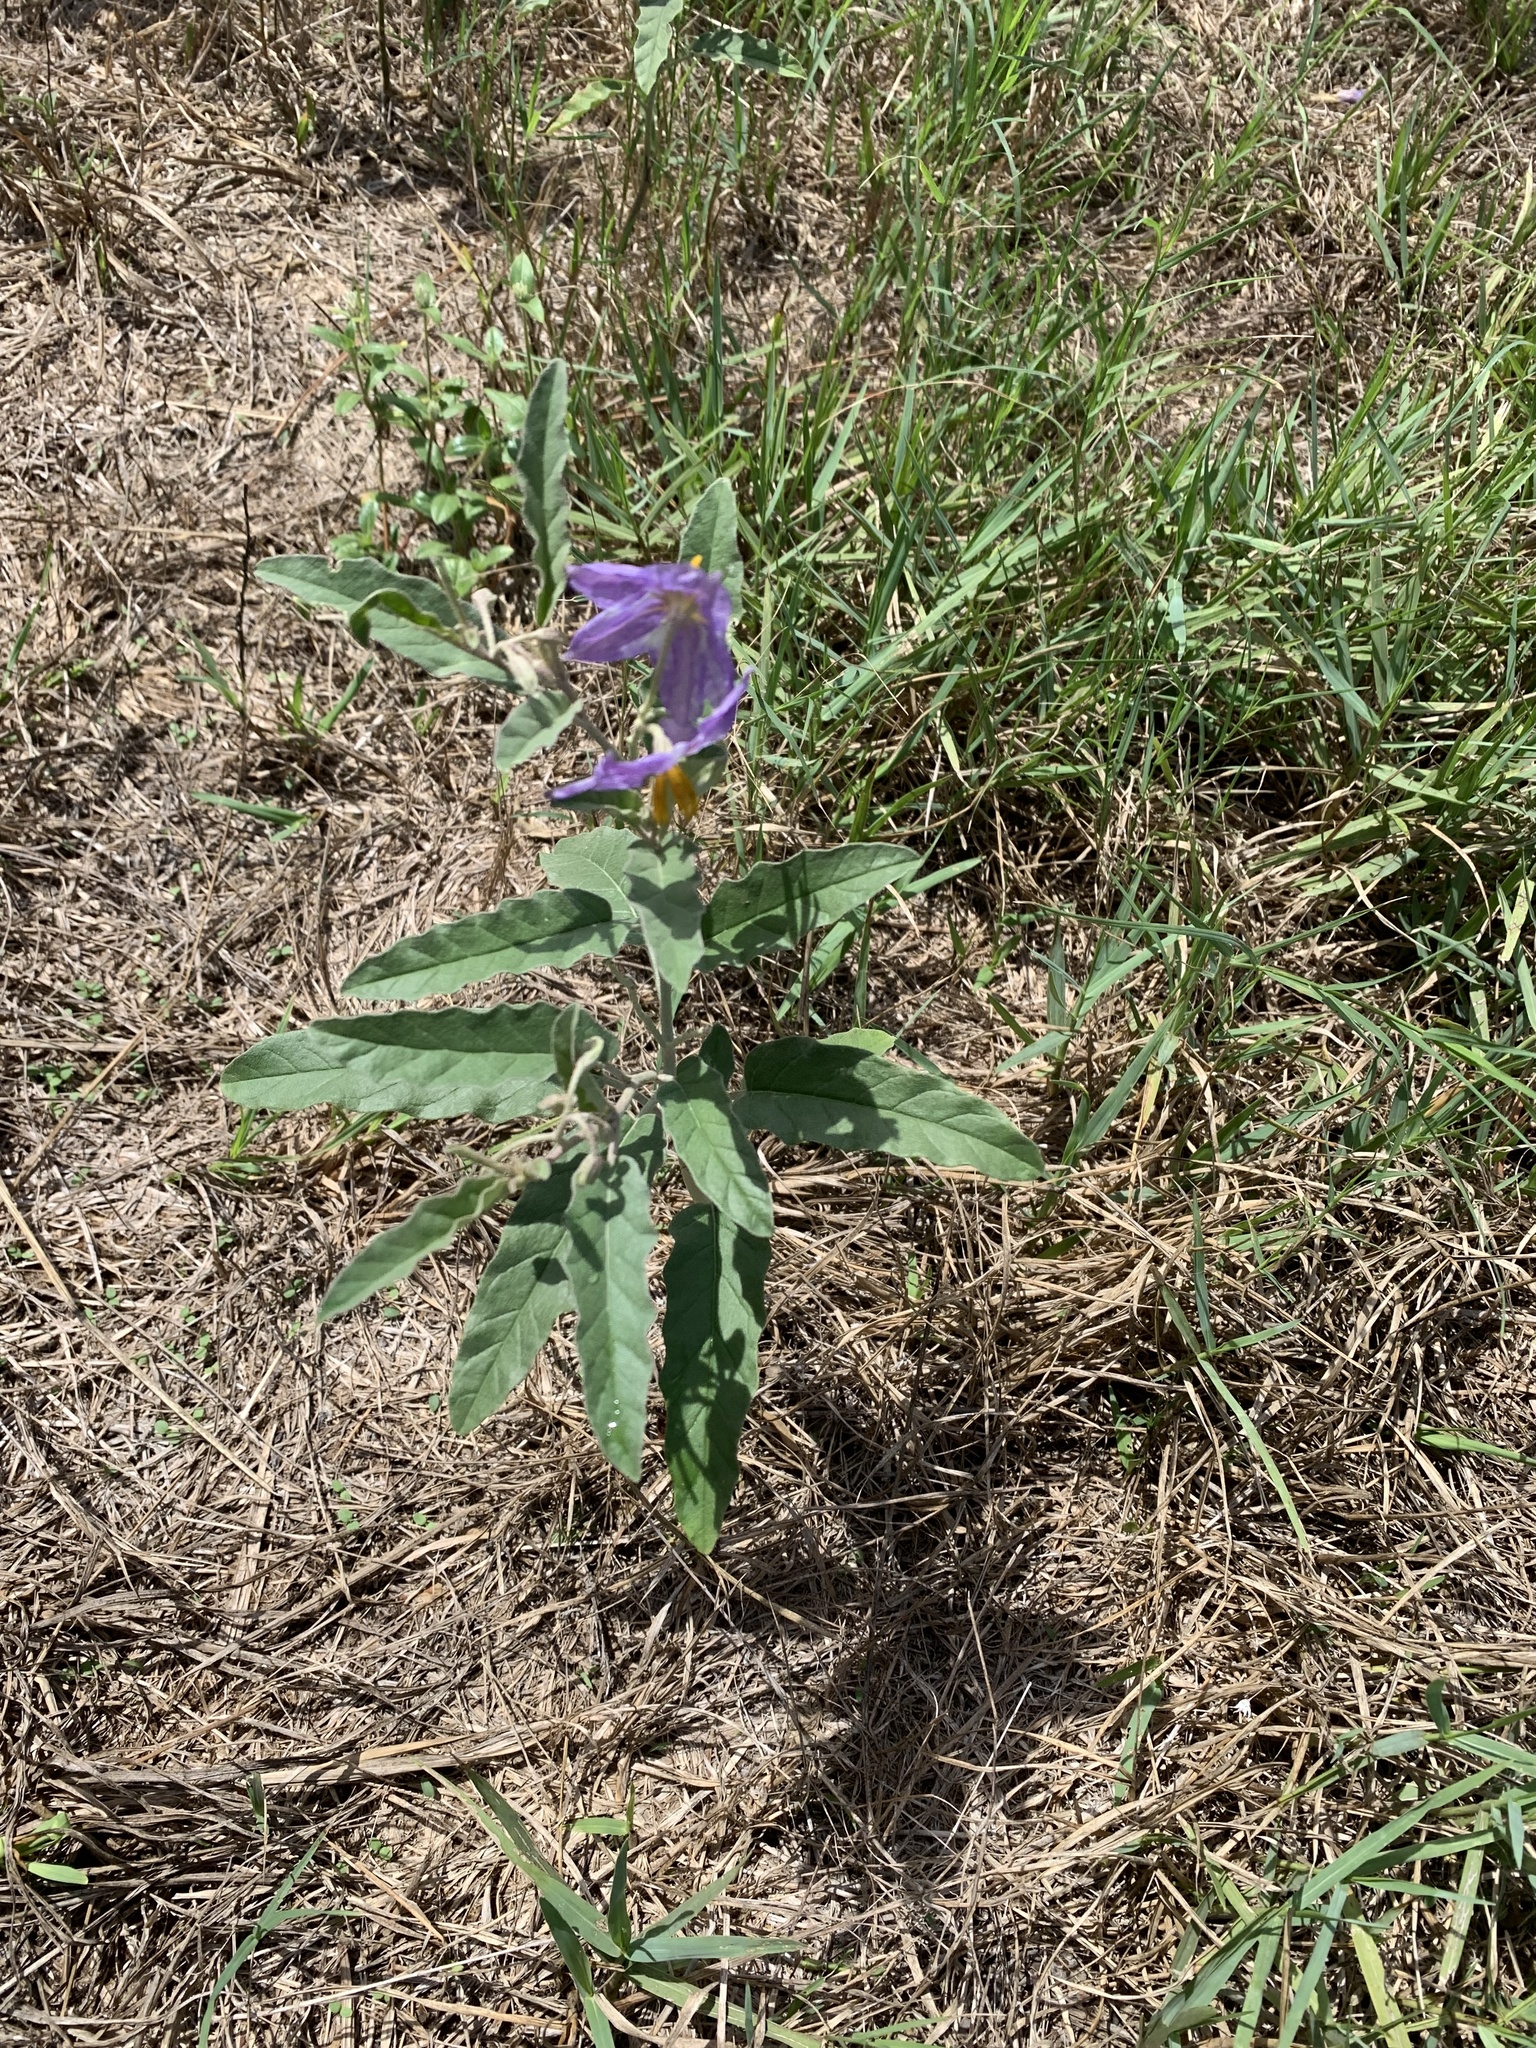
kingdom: Plantae
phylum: Tracheophyta
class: Magnoliopsida
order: Solanales
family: Solanaceae
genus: Solanum
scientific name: Solanum elaeagnifolium
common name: Silverleaf nightshade
